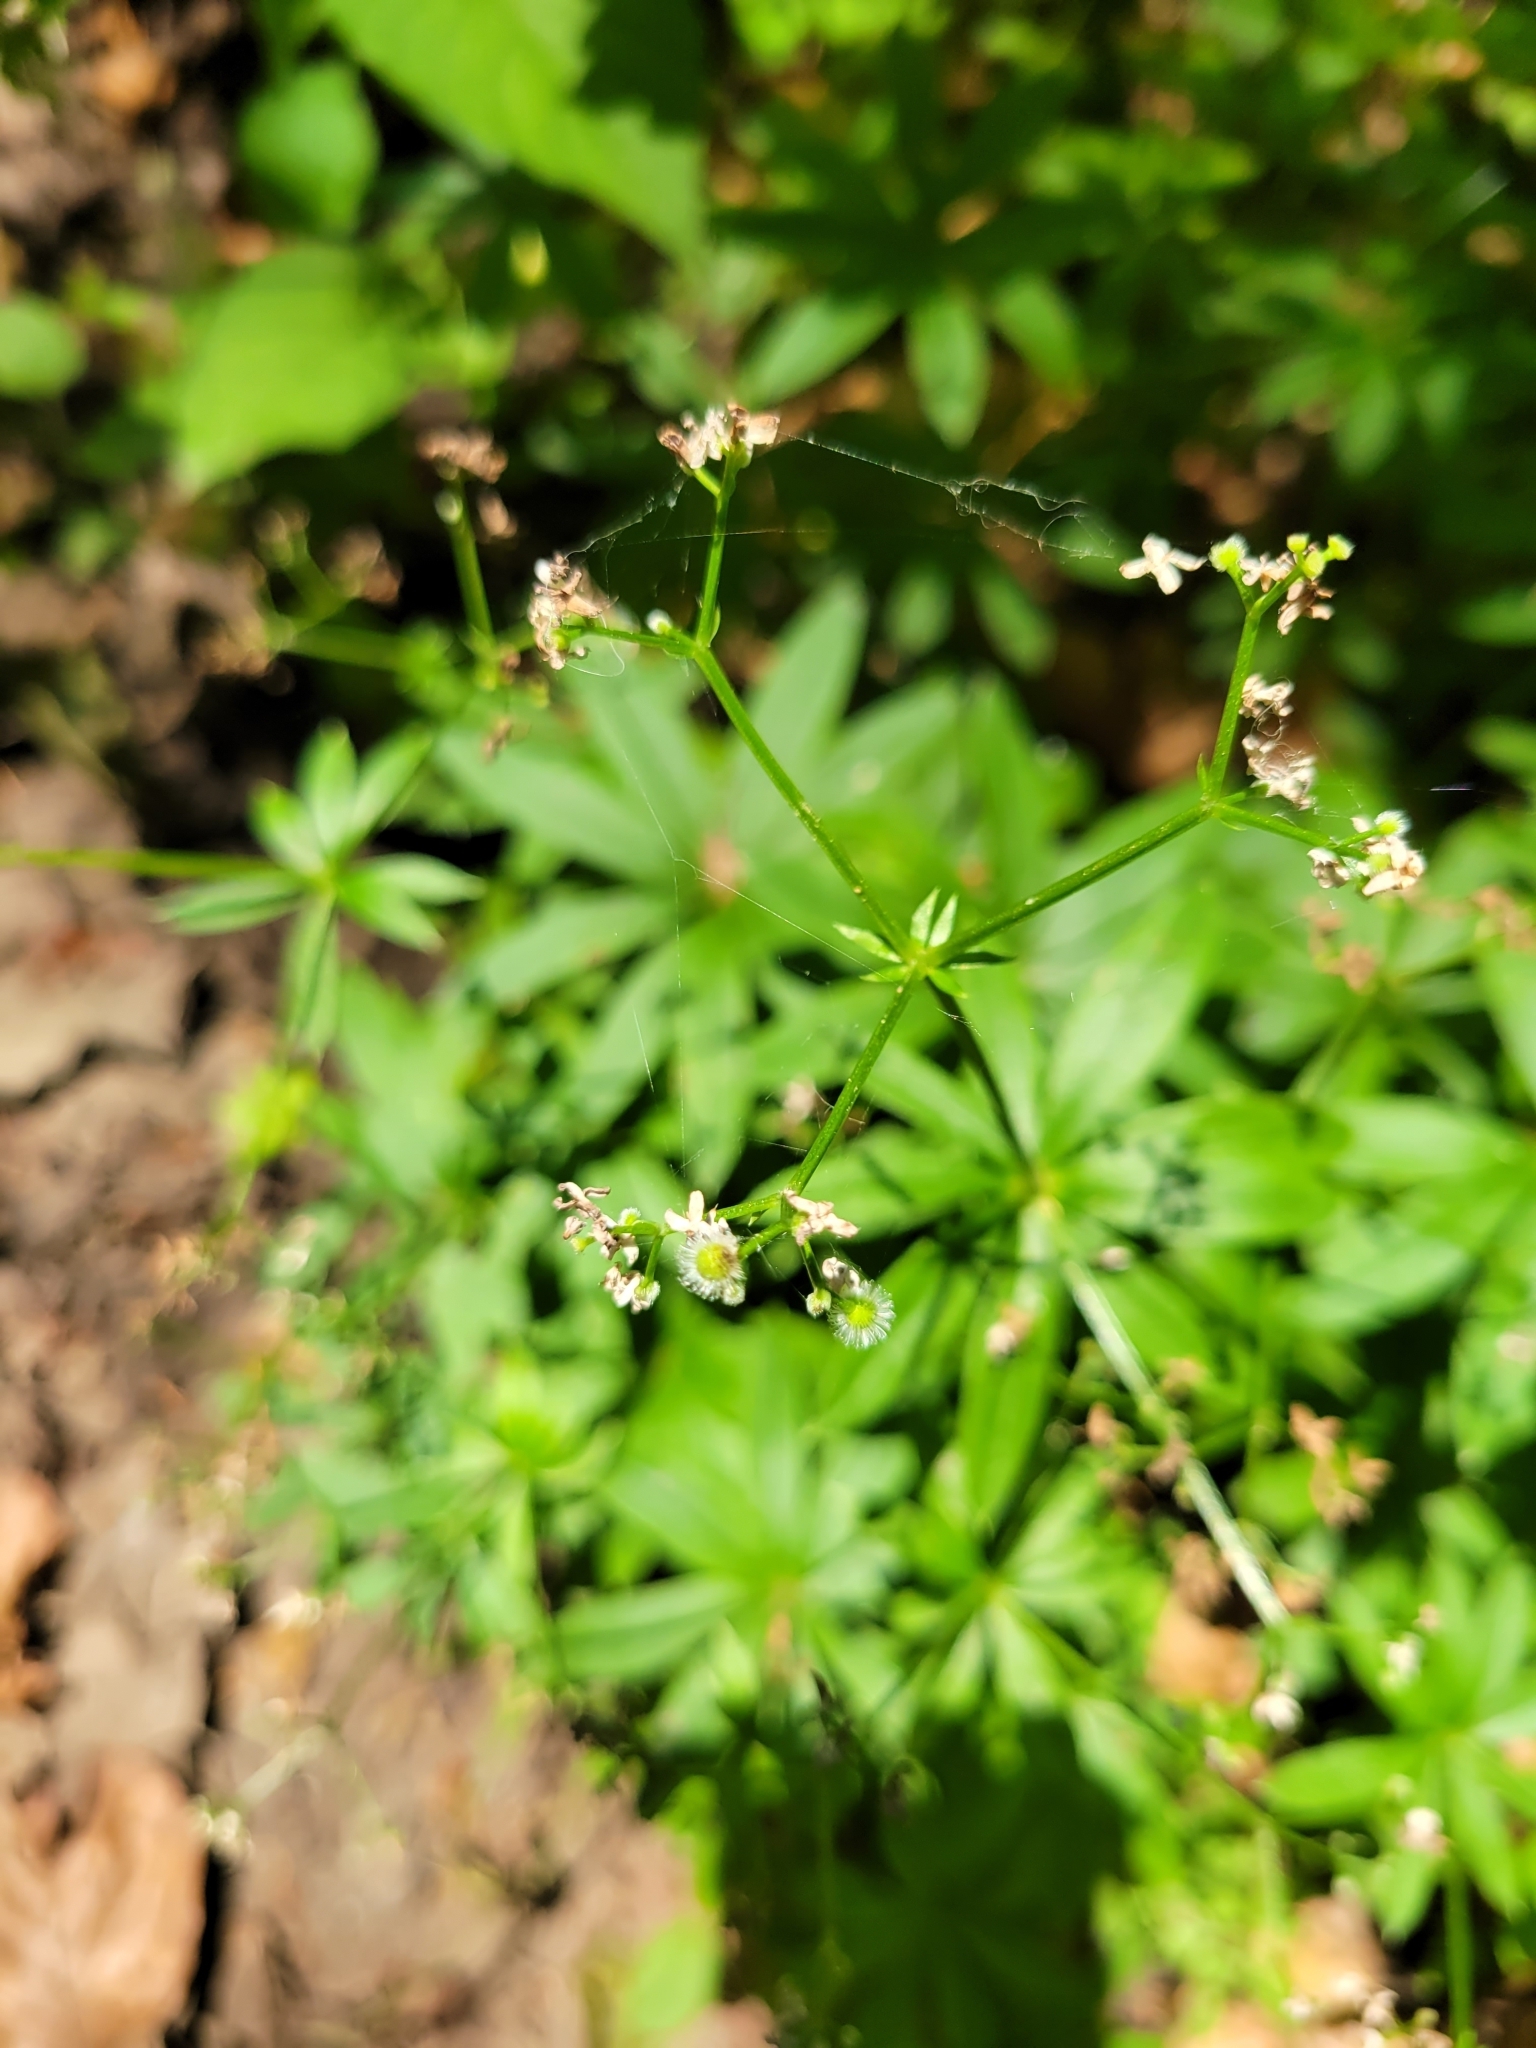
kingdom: Plantae
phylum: Tracheophyta
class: Magnoliopsida
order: Gentianales
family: Rubiaceae
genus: Galium
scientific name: Galium odoratum
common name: Sweet woodruff
